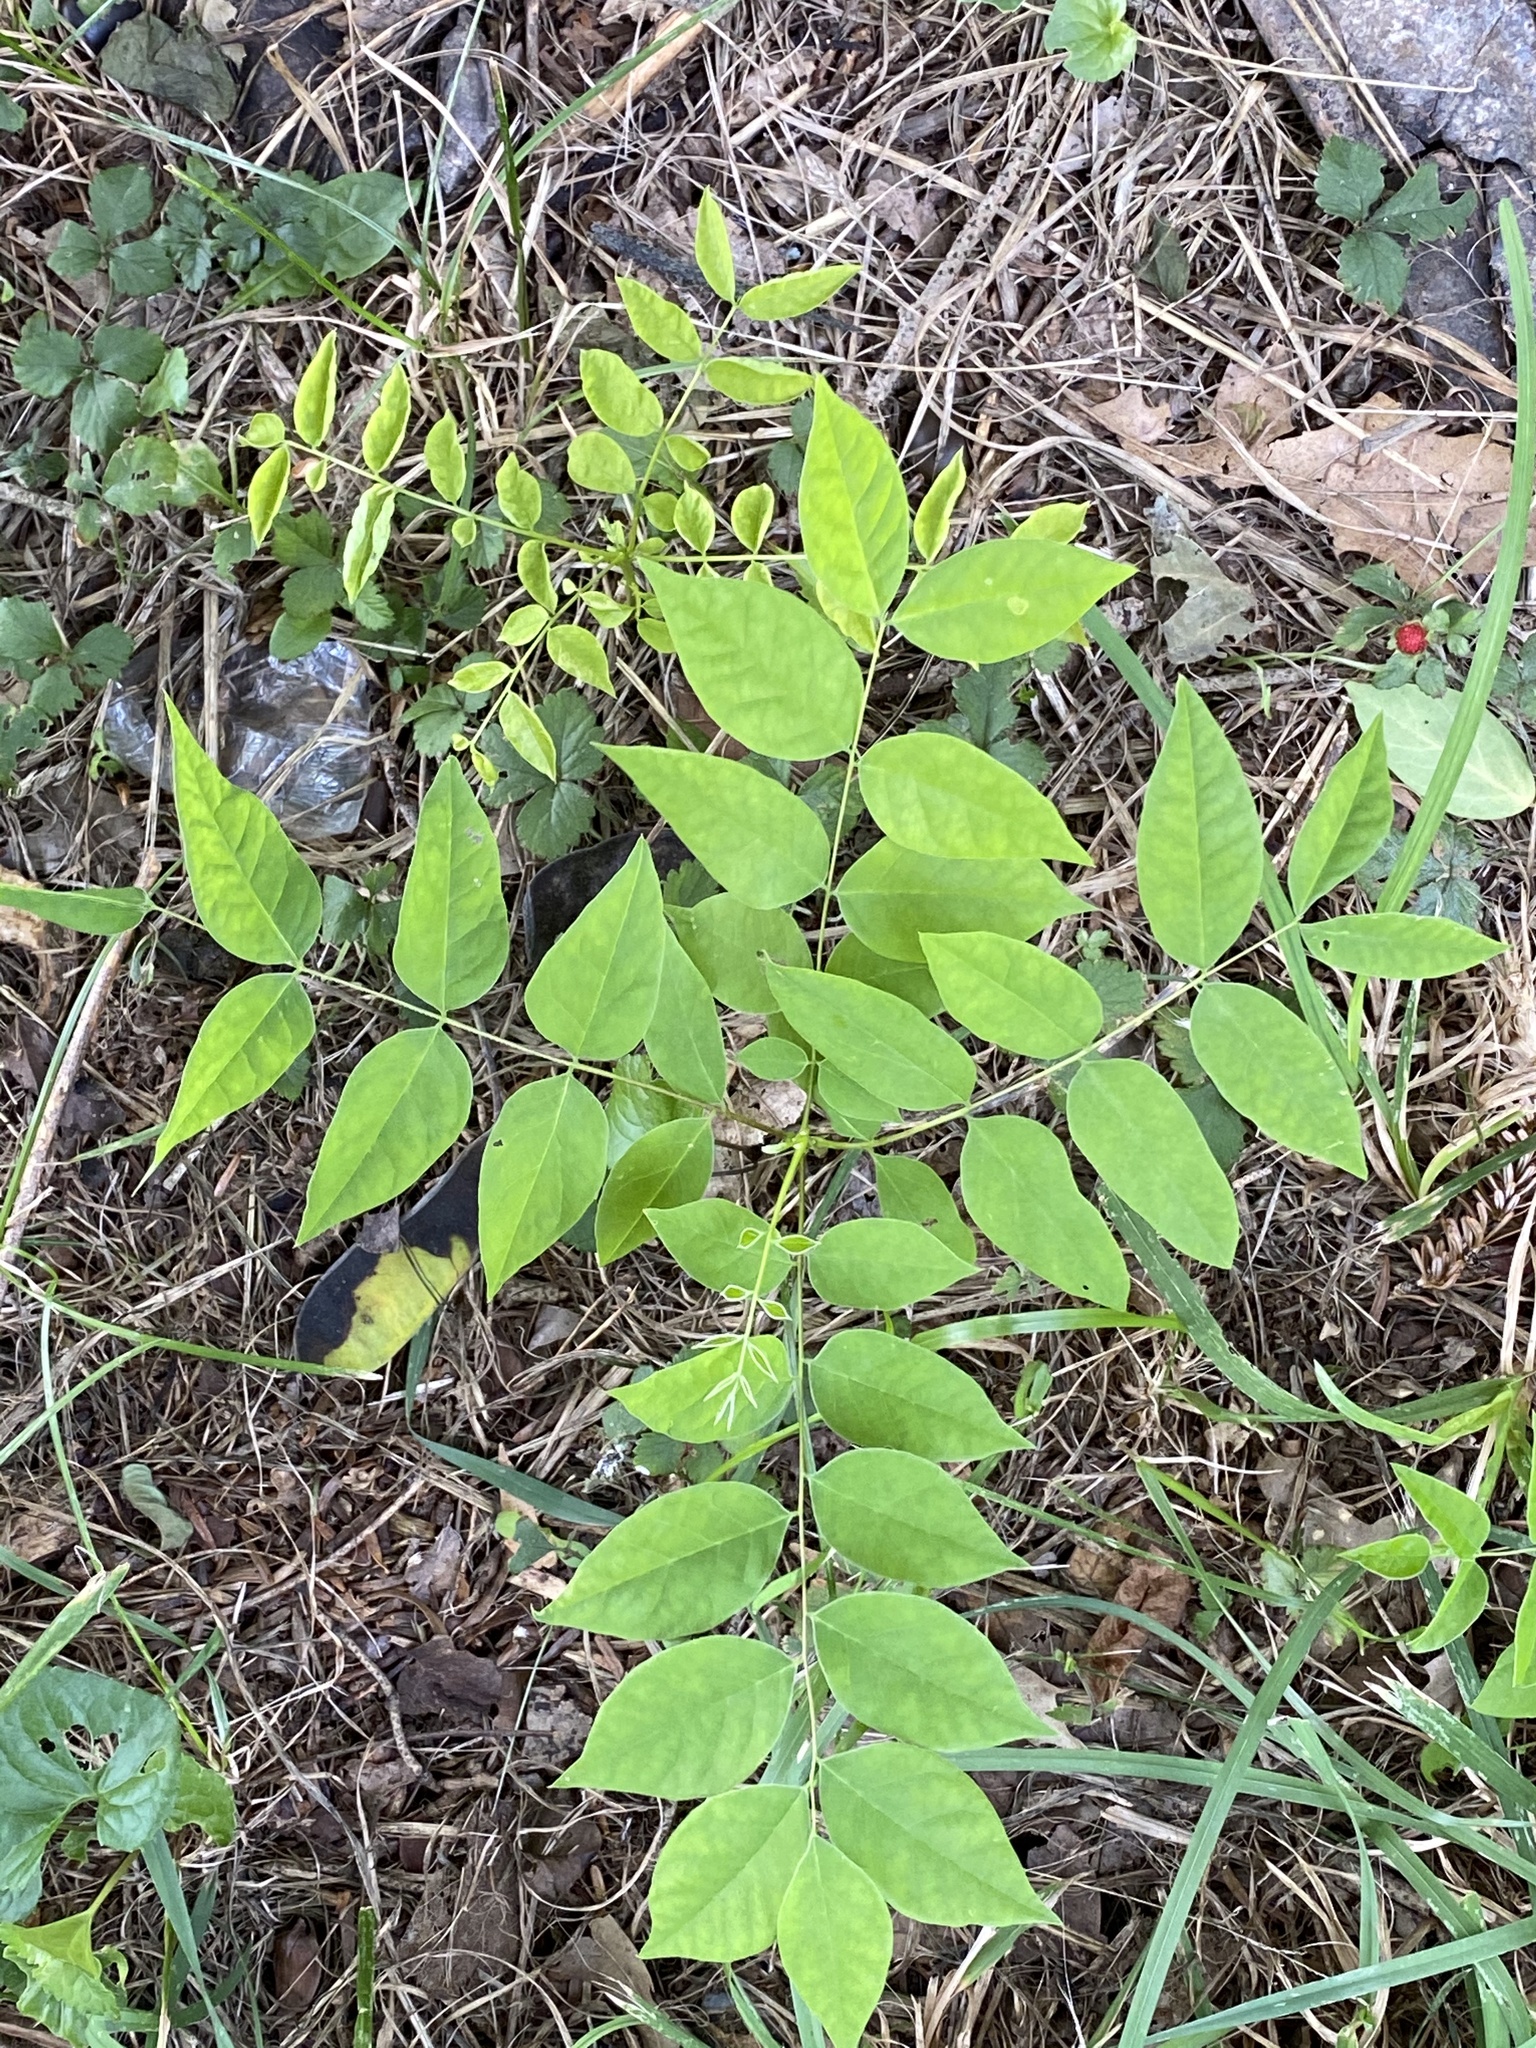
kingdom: Plantae
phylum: Tracheophyta
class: Magnoliopsida
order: Fabales
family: Fabaceae
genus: Gymnocladus
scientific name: Gymnocladus dioicus
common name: Kentucky coffee-tree
